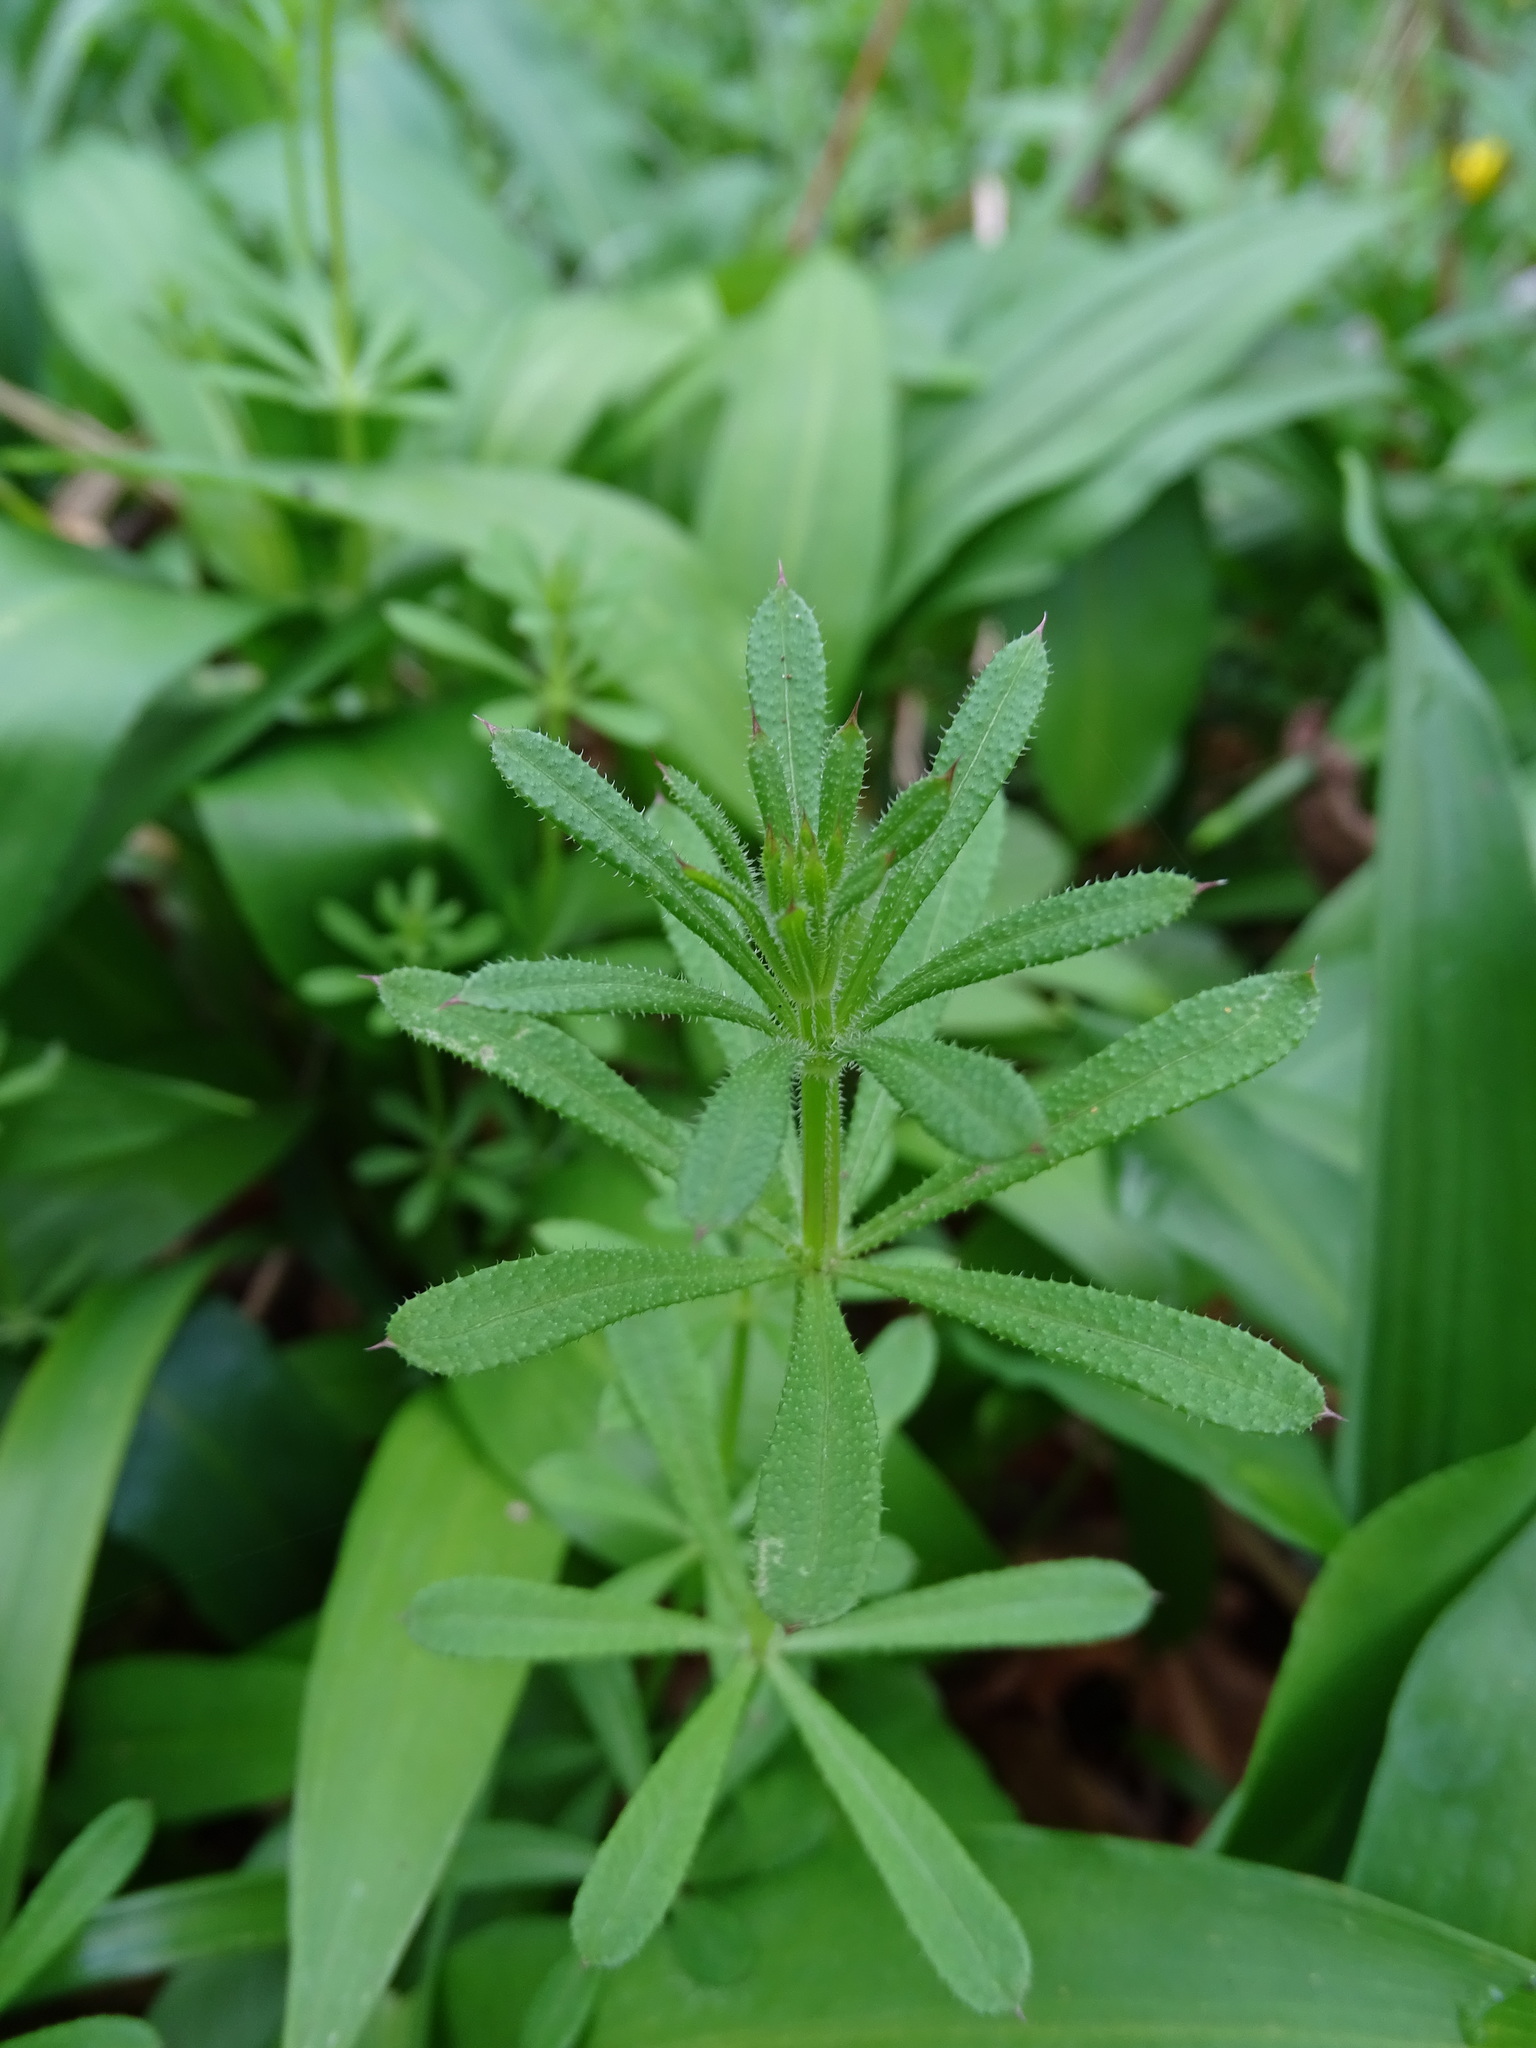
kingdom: Plantae
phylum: Tracheophyta
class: Magnoliopsida
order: Gentianales
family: Rubiaceae
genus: Galium
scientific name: Galium aparine
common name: Cleavers
